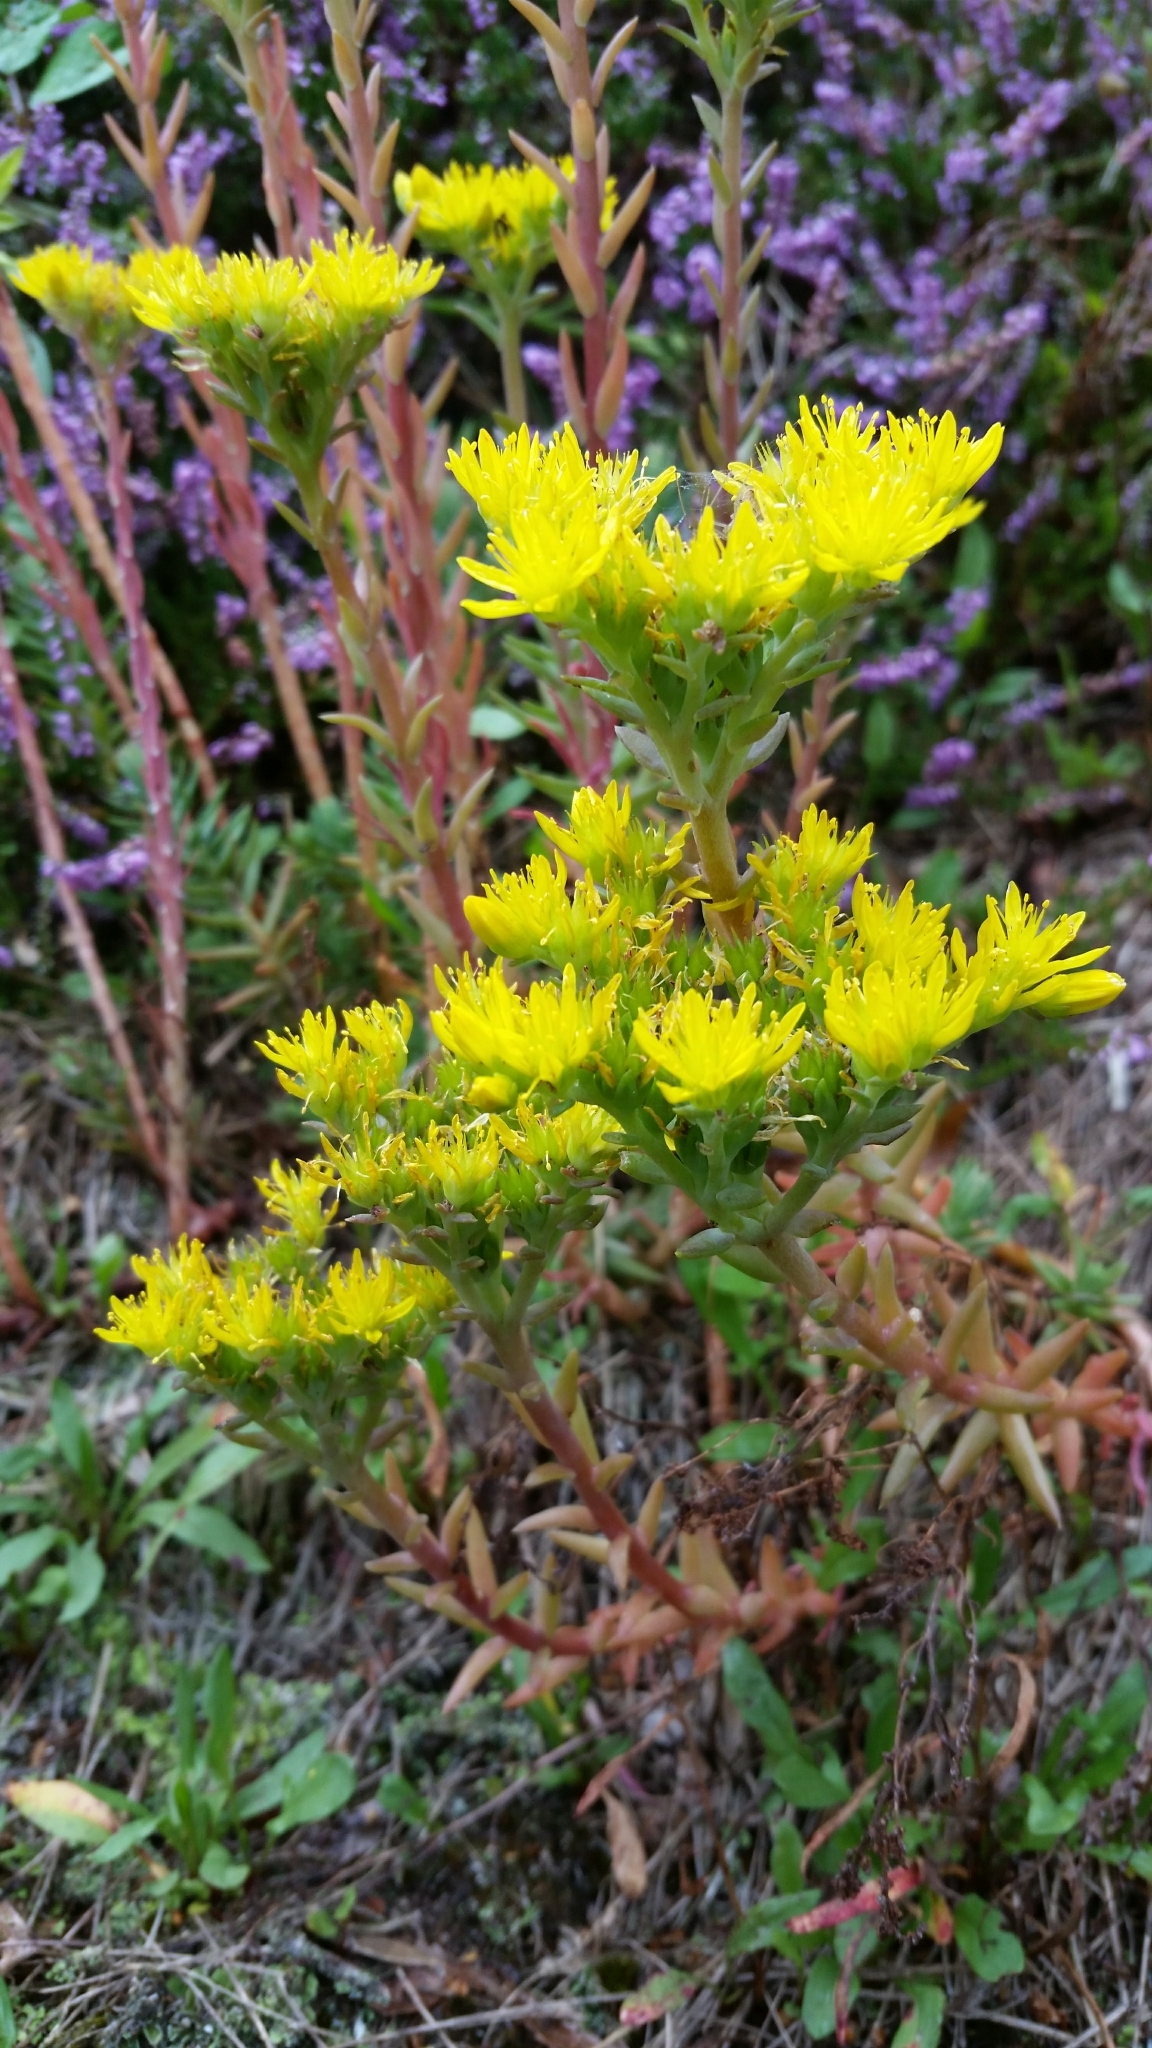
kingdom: Plantae
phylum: Tracheophyta
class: Magnoliopsida
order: Saxifragales
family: Crassulaceae
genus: Petrosedum
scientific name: Petrosedum rupestre
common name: Jenny's stonecrop
